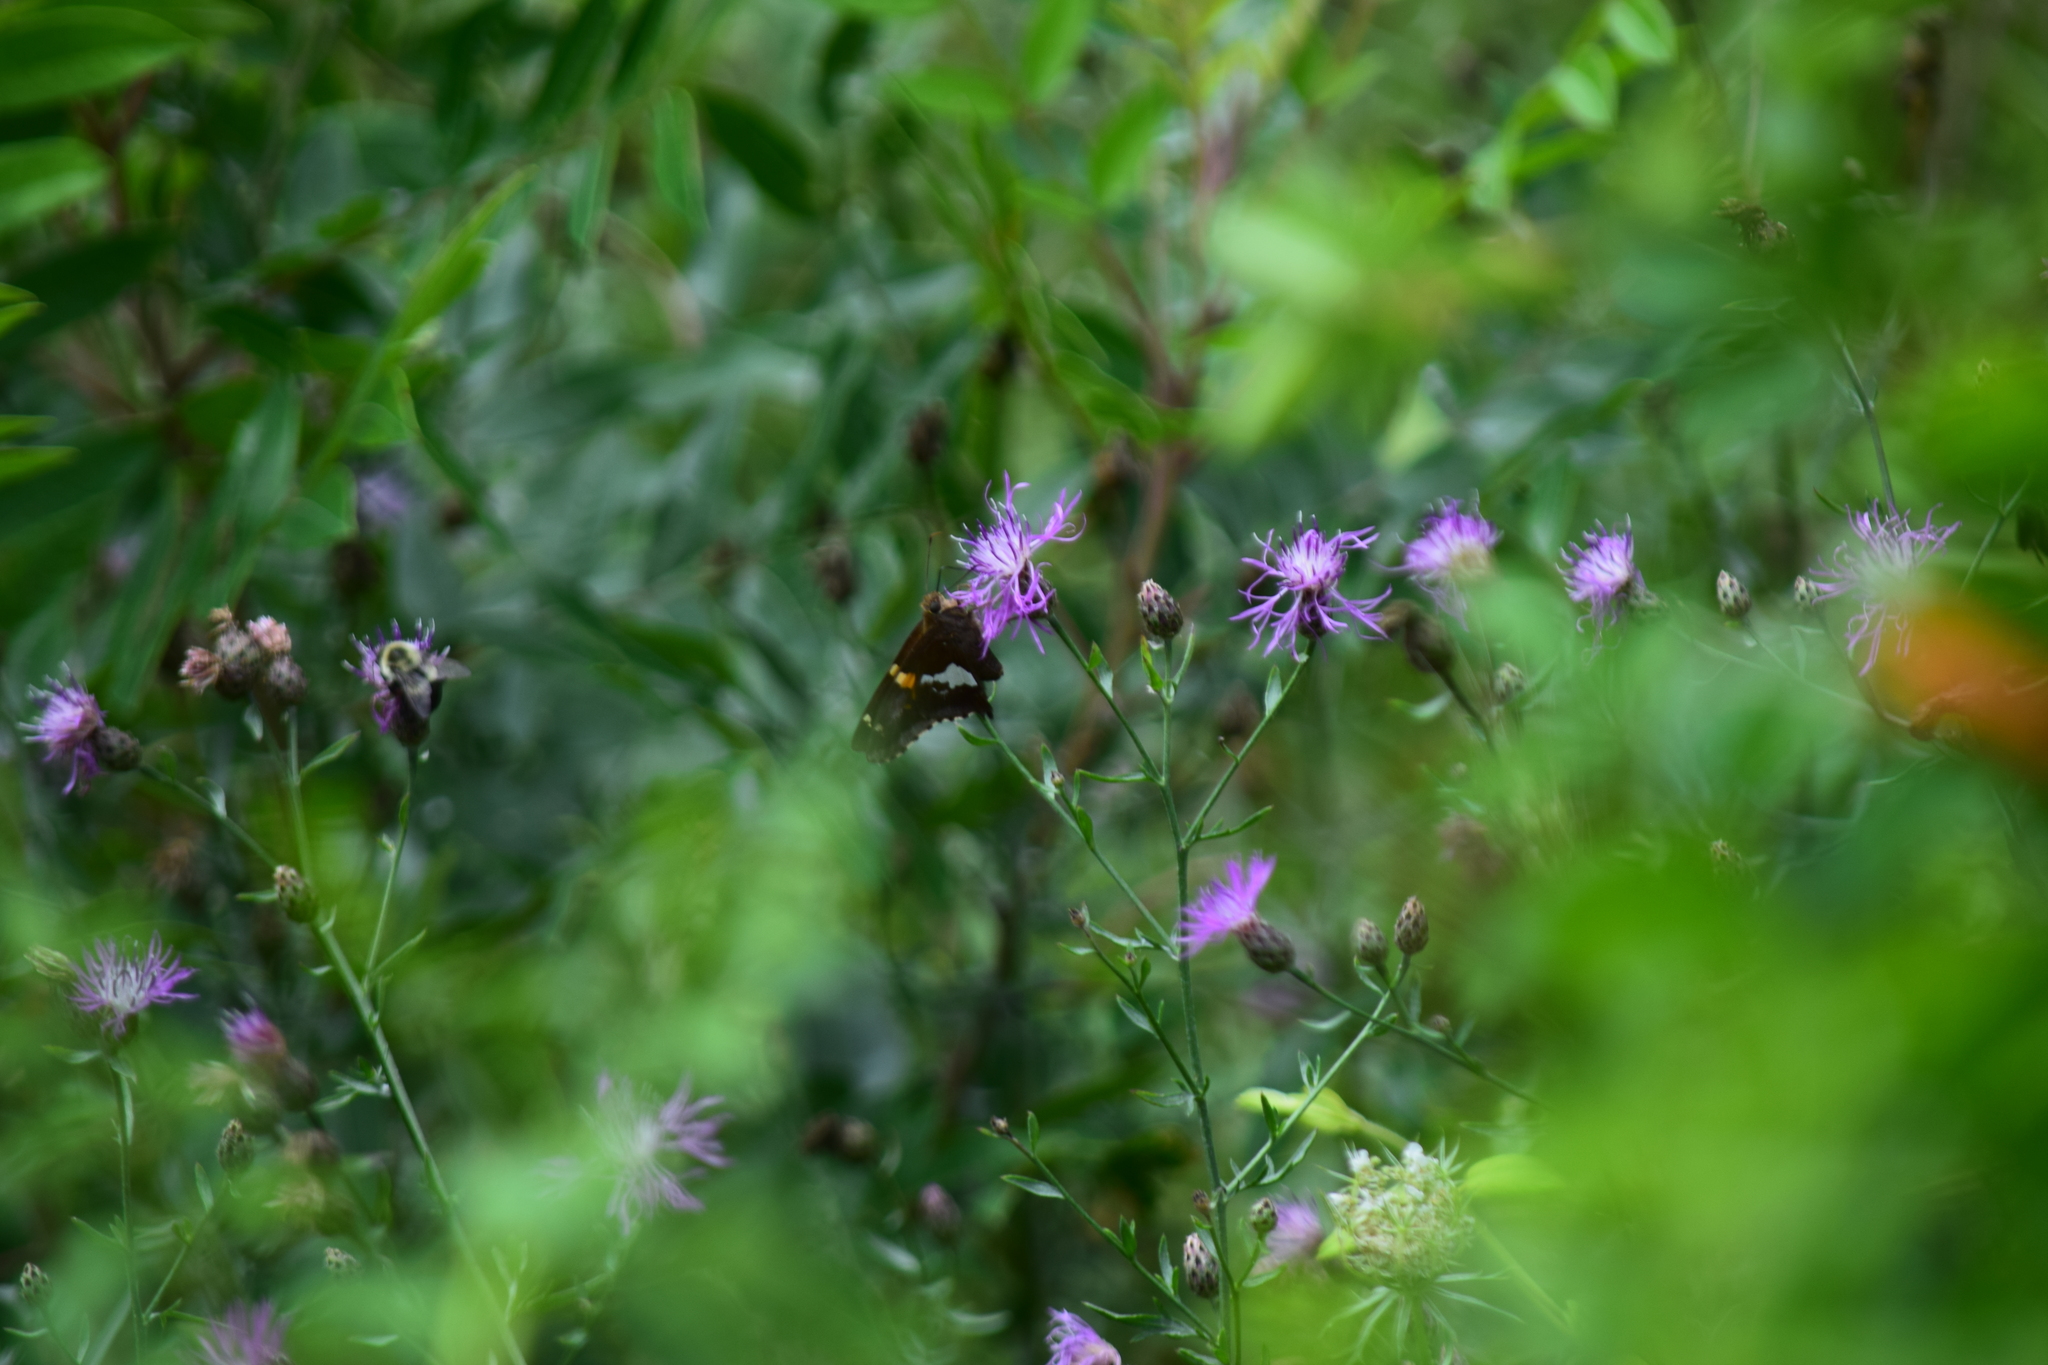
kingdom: Animalia
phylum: Arthropoda
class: Insecta
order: Lepidoptera
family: Hesperiidae
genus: Epargyreus
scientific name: Epargyreus clarus
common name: Silver-spotted skipper
